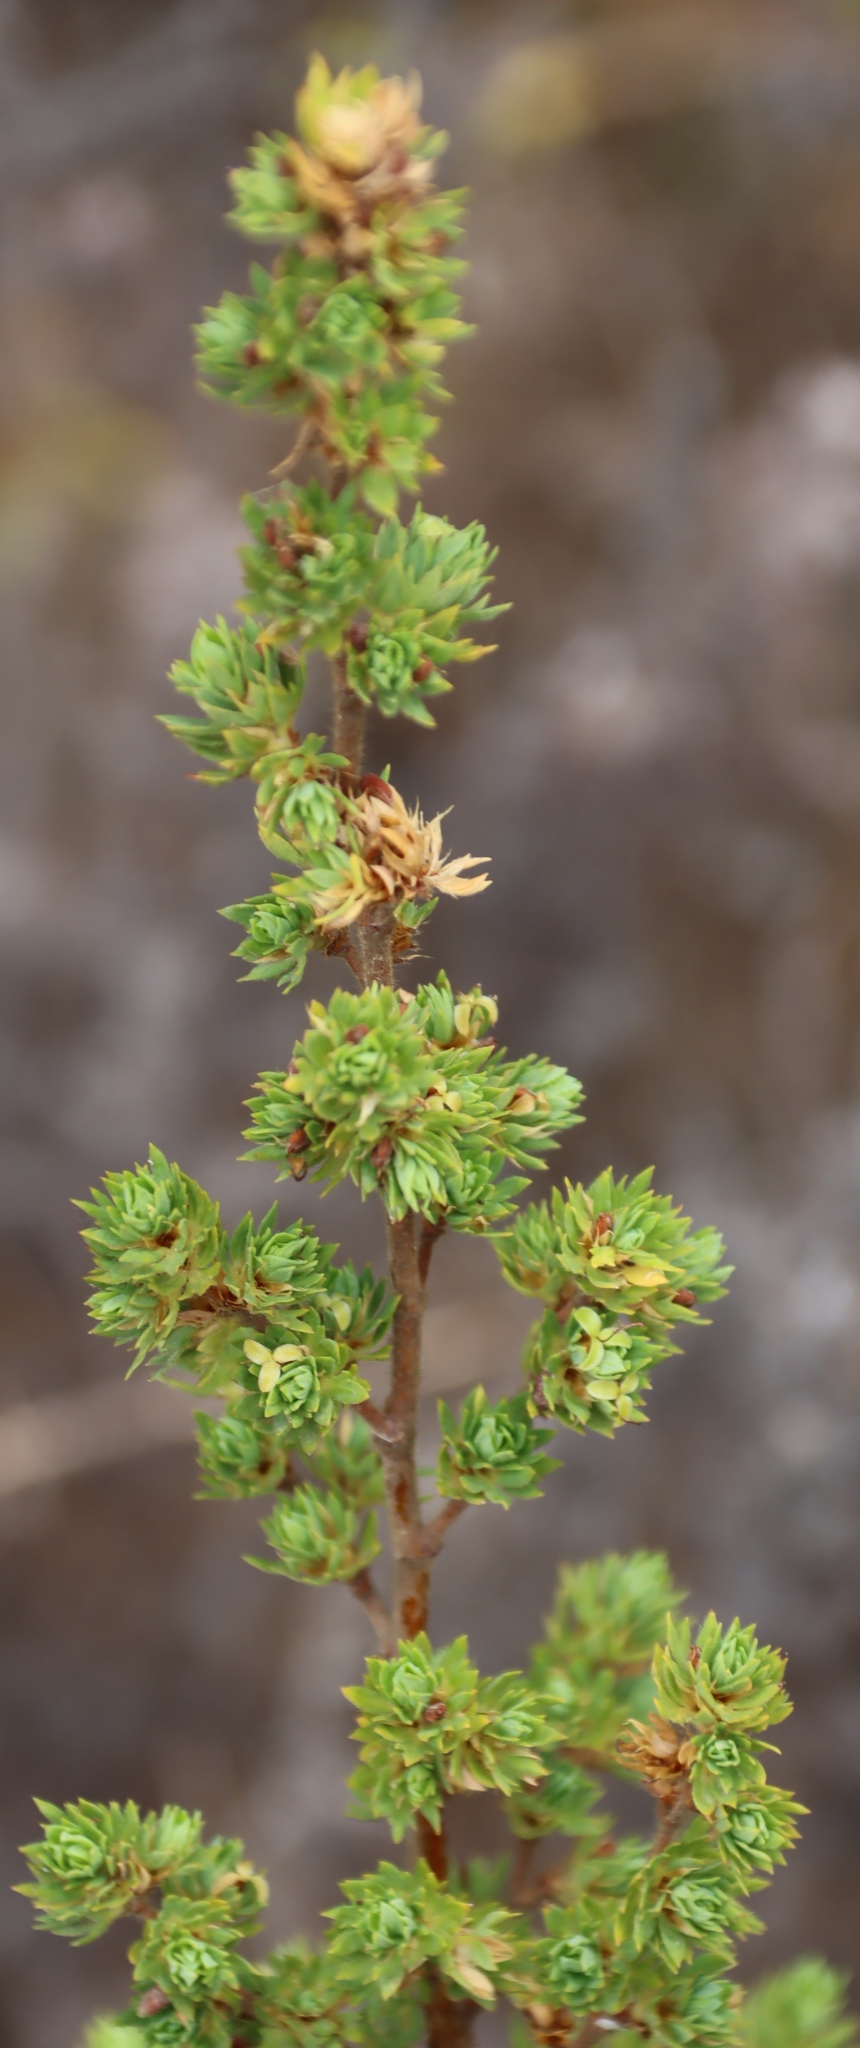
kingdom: Plantae
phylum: Tracheophyta
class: Magnoliopsida
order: Rosales
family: Rosaceae
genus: Cliffortia
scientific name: Cliffortia polygonifolia
